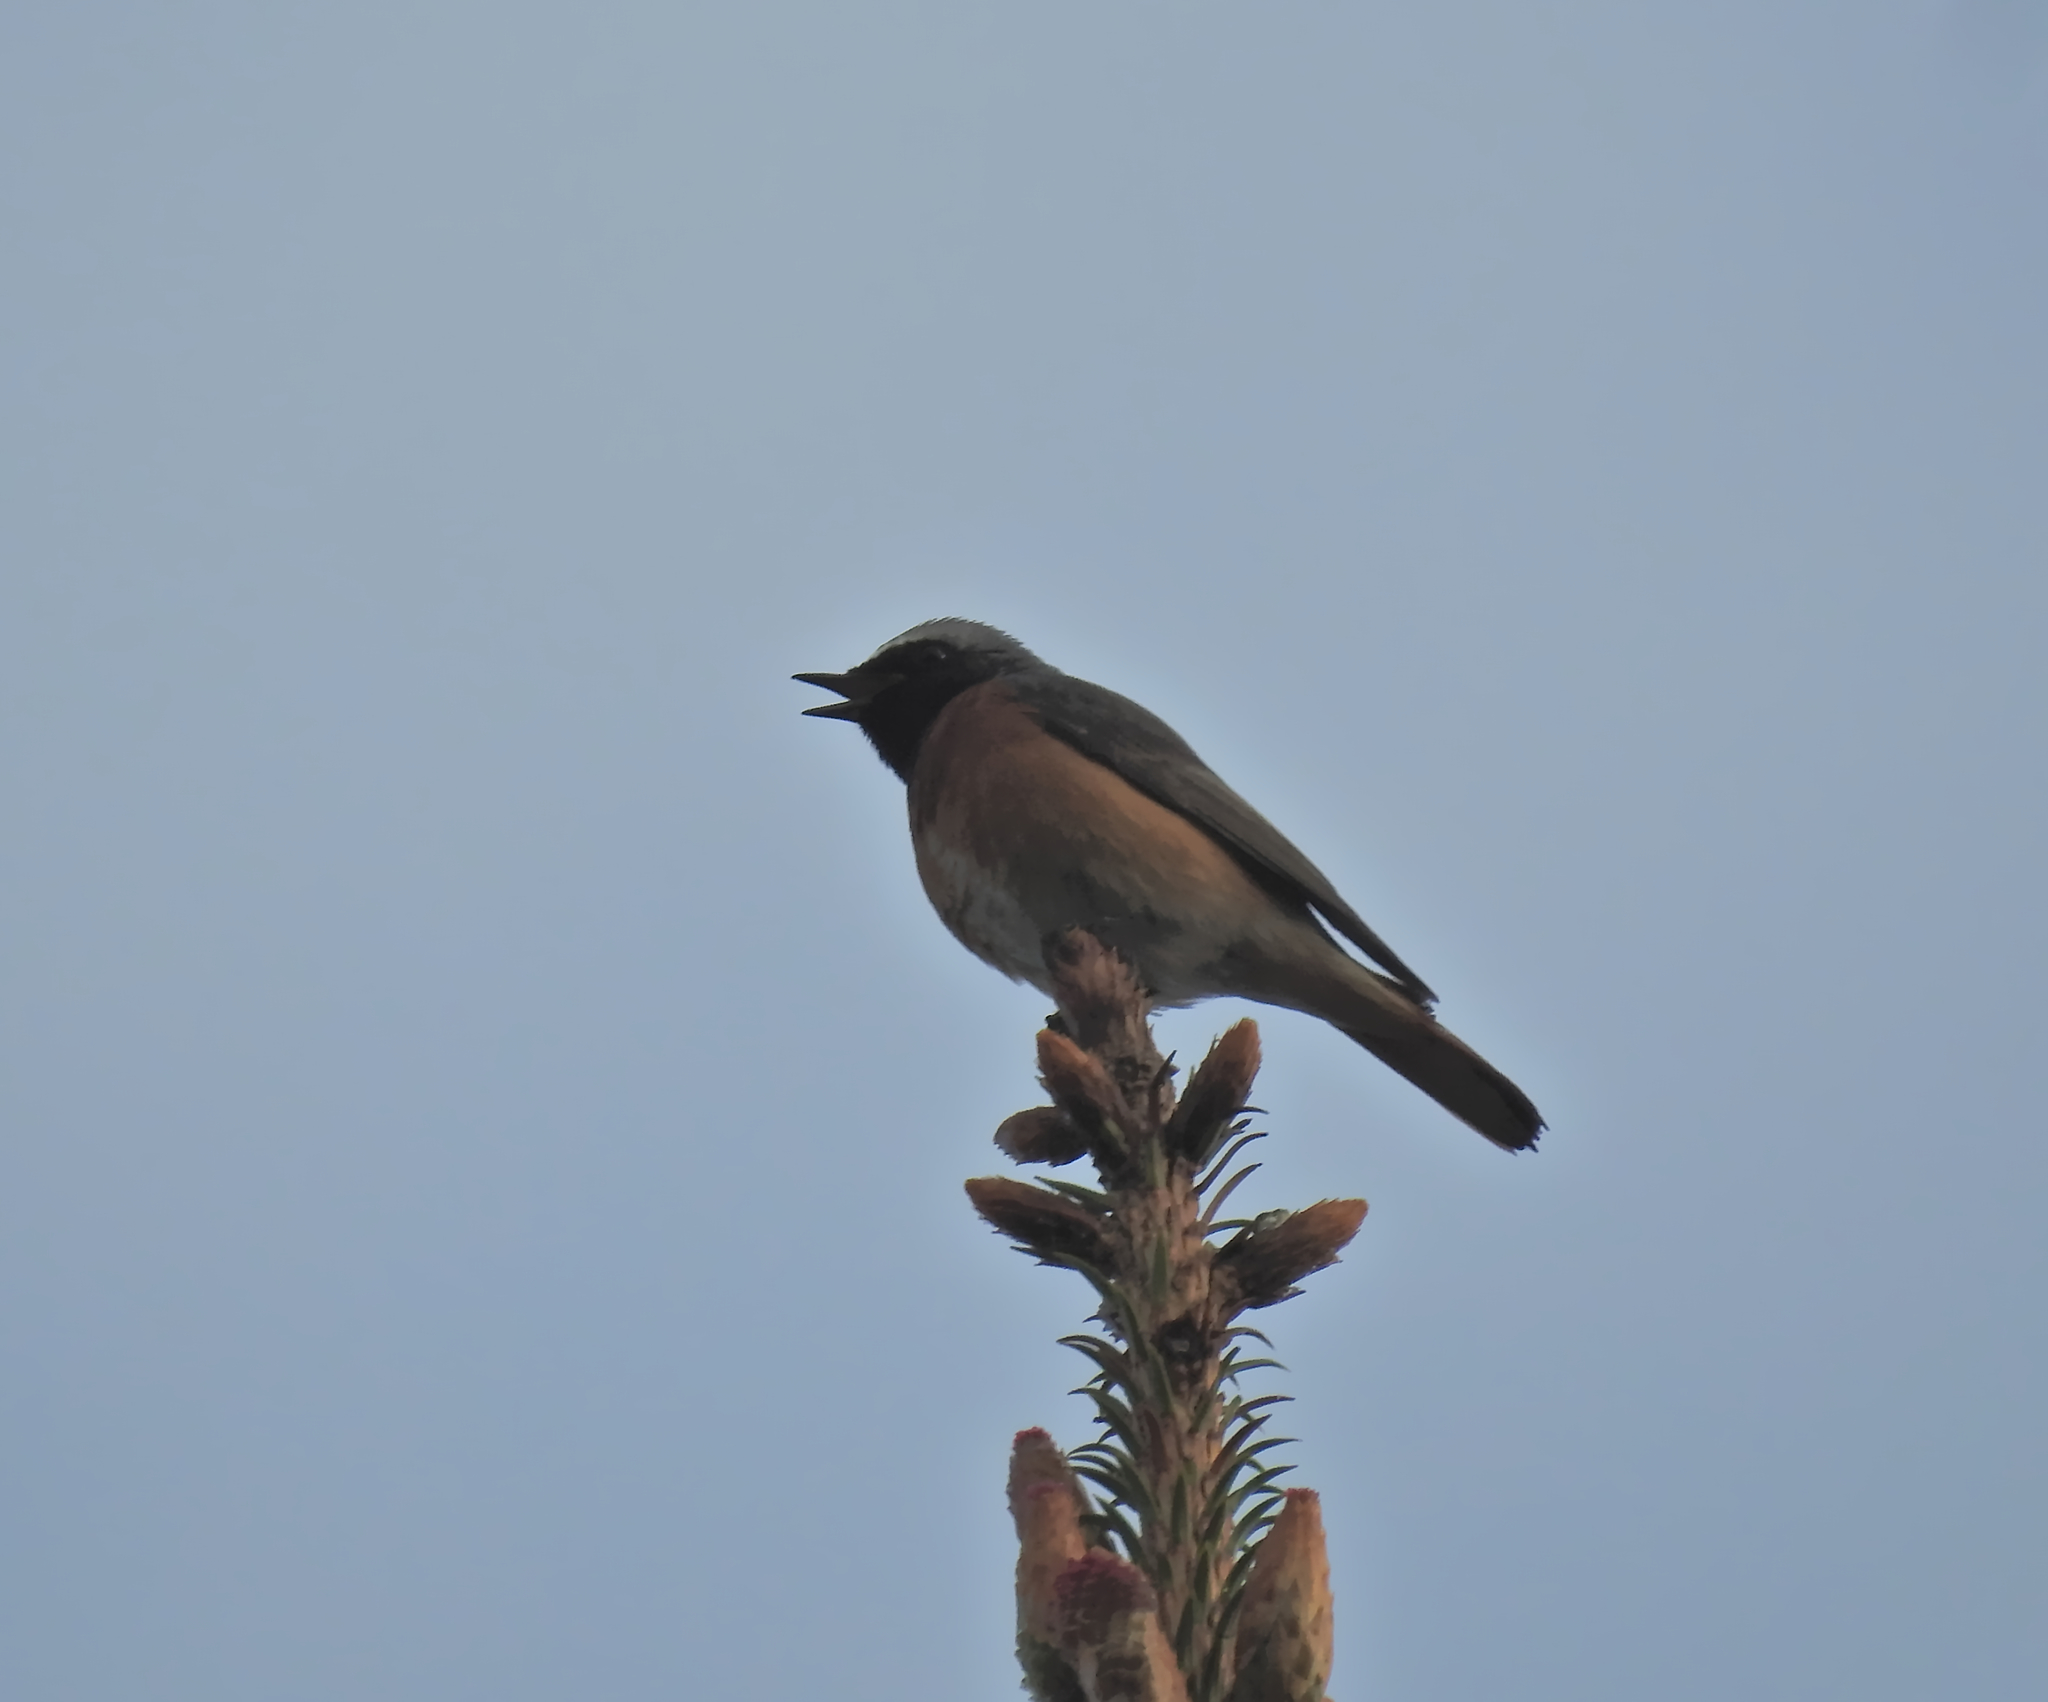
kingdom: Animalia
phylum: Chordata
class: Aves
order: Passeriformes
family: Muscicapidae
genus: Phoenicurus
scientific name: Phoenicurus phoenicurus
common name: Common redstart
